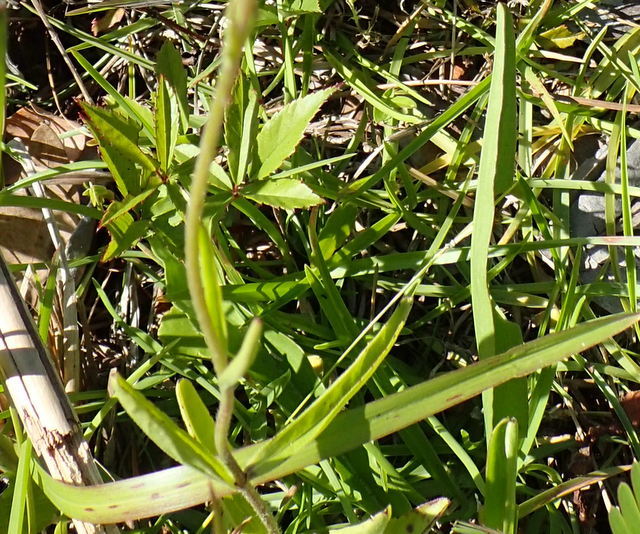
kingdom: Plantae
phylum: Tracheophyta
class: Magnoliopsida
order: Lamiales
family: Orobanchaceae
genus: Buchnera
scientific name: Buchnera floridana
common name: Florida bluehearts
